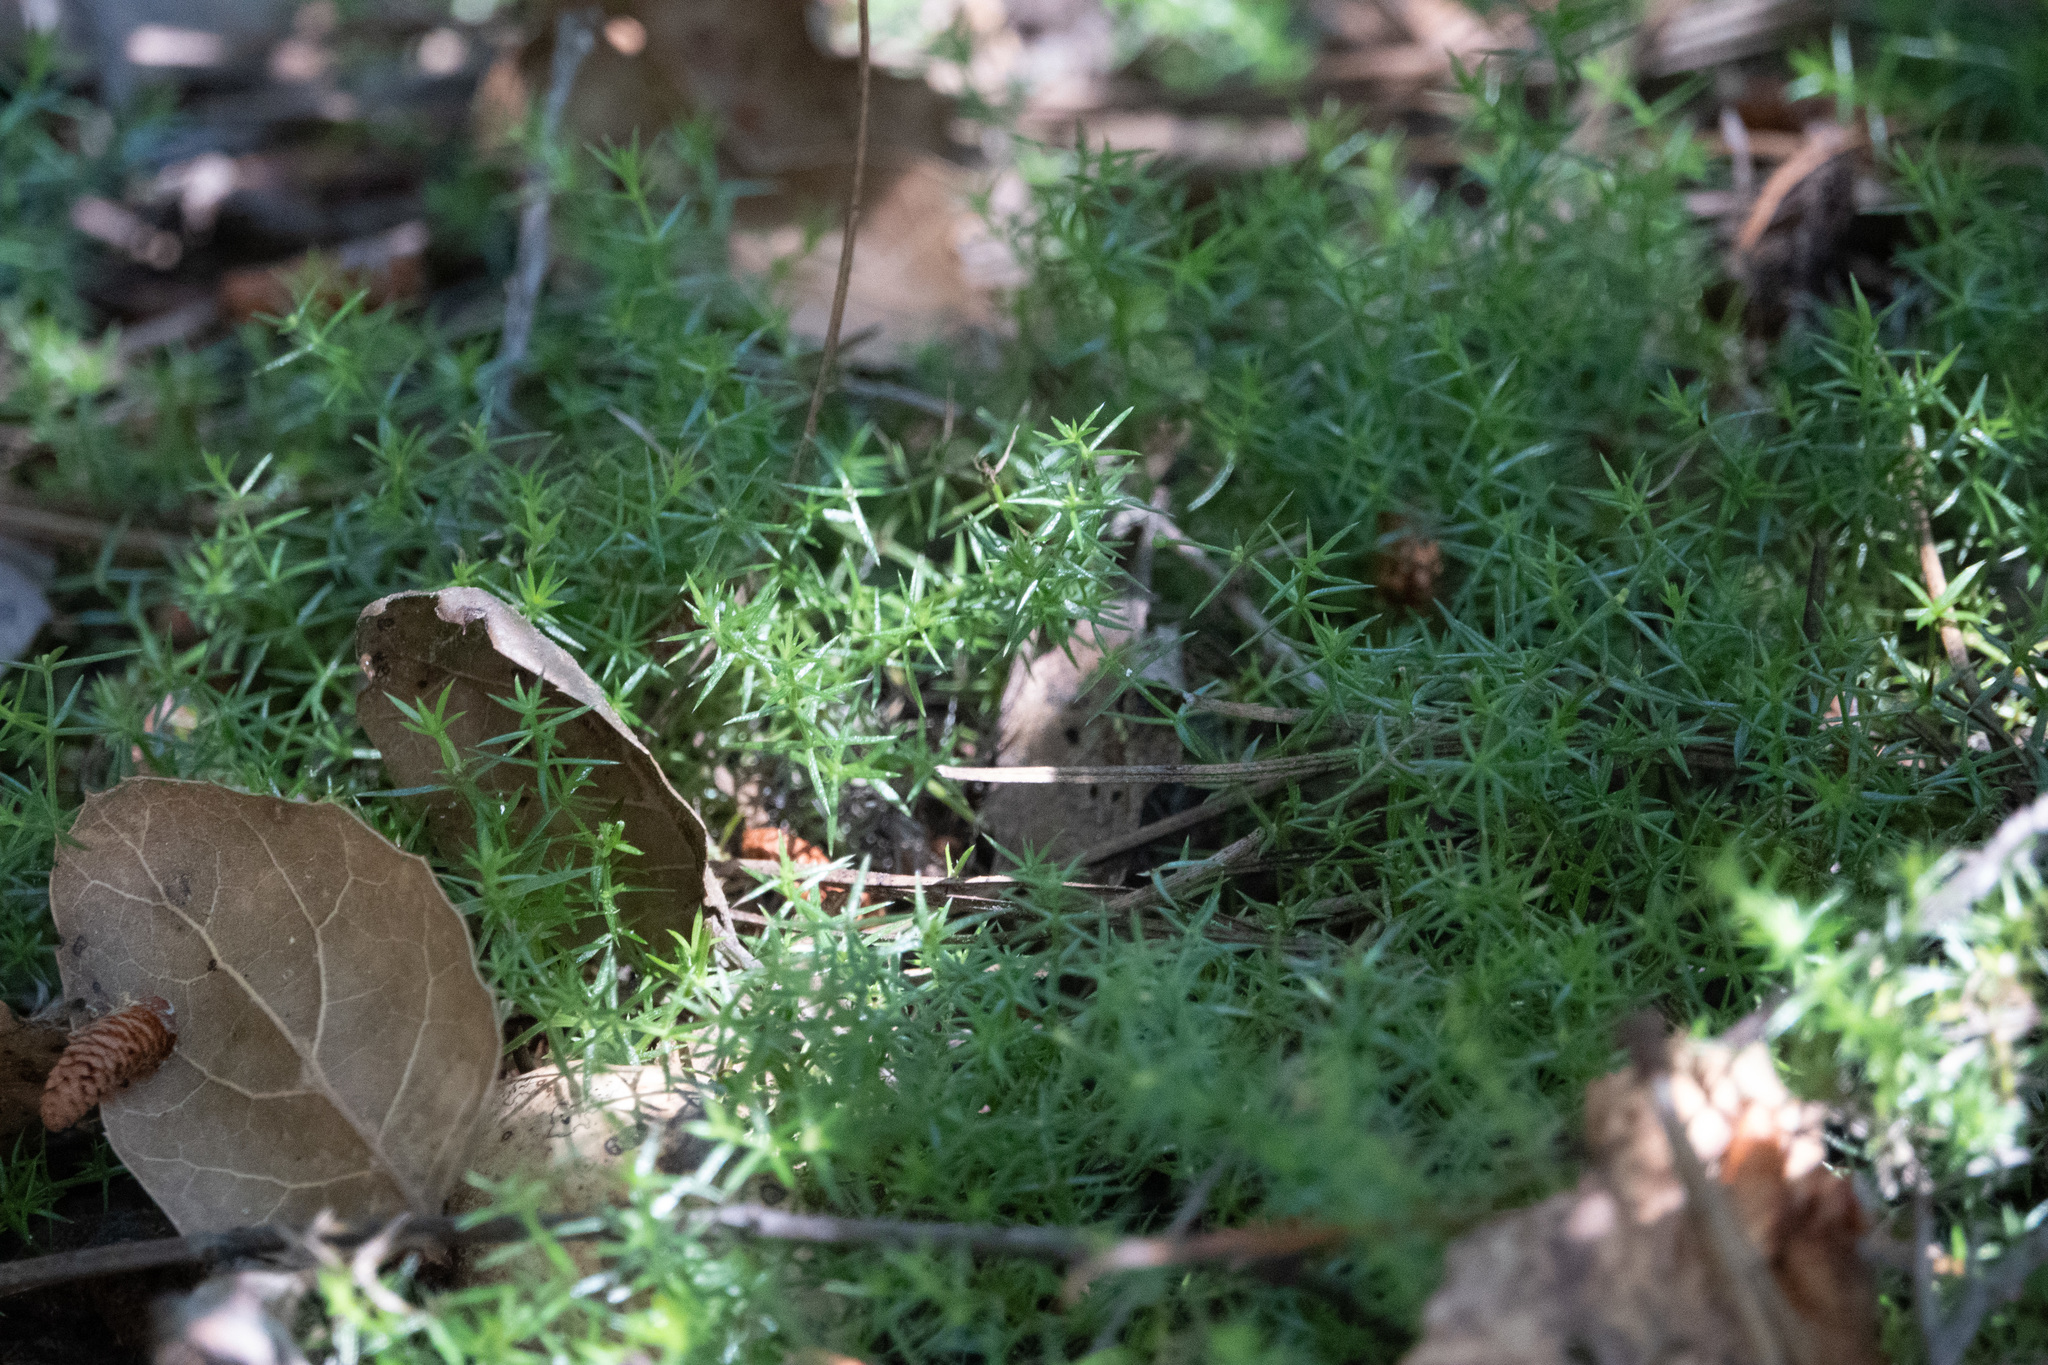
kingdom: Plantae
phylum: Tracheophyta
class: Magnoliopsida
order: Gentianales
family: Rubiaceae
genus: Galium
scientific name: Galium andrewsii
